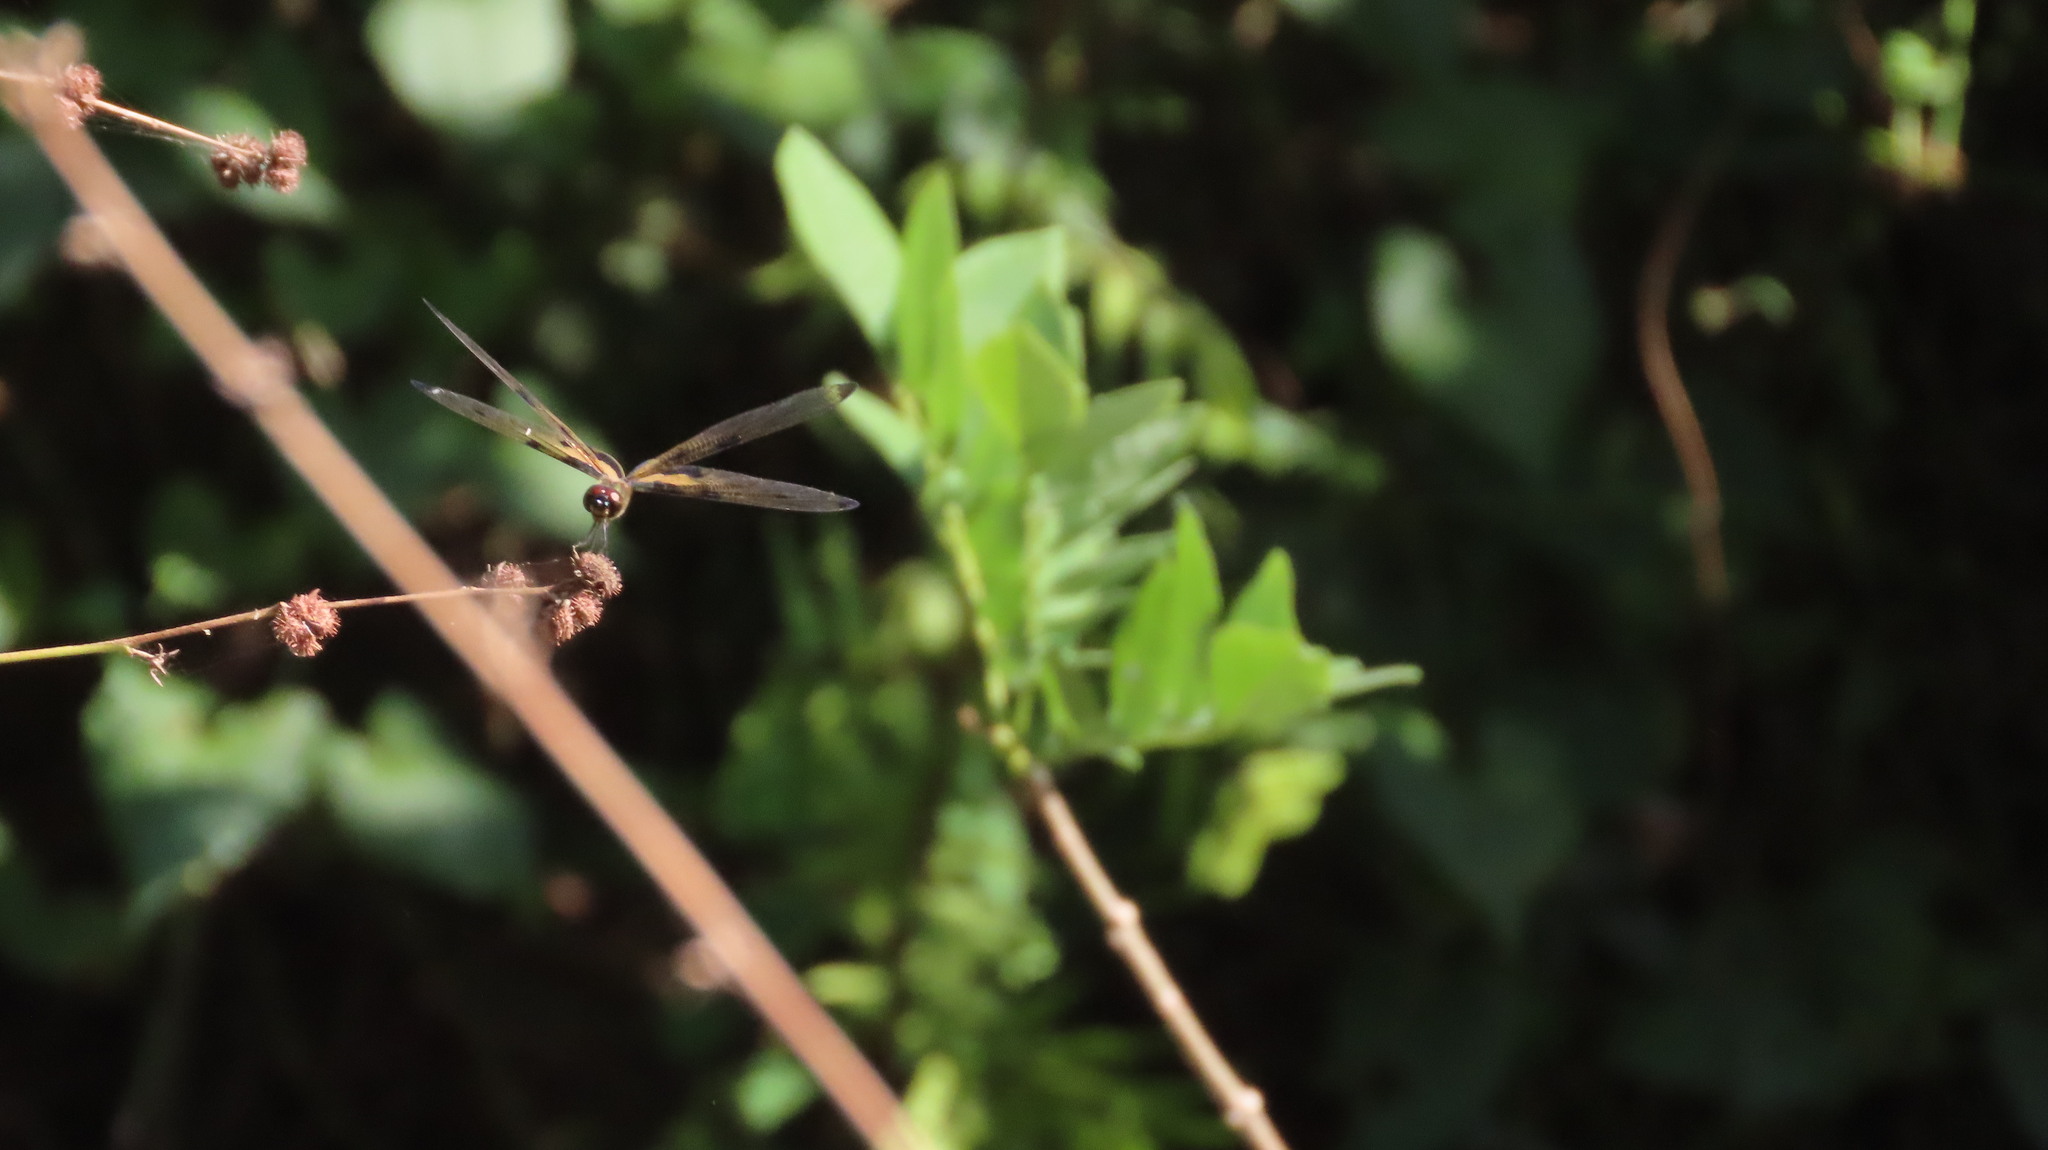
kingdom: Animalia
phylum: Arthropoda
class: Insecta
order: Odonata
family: Libellulidae
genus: Rhyothemis
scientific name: Rhyothemis variegata
